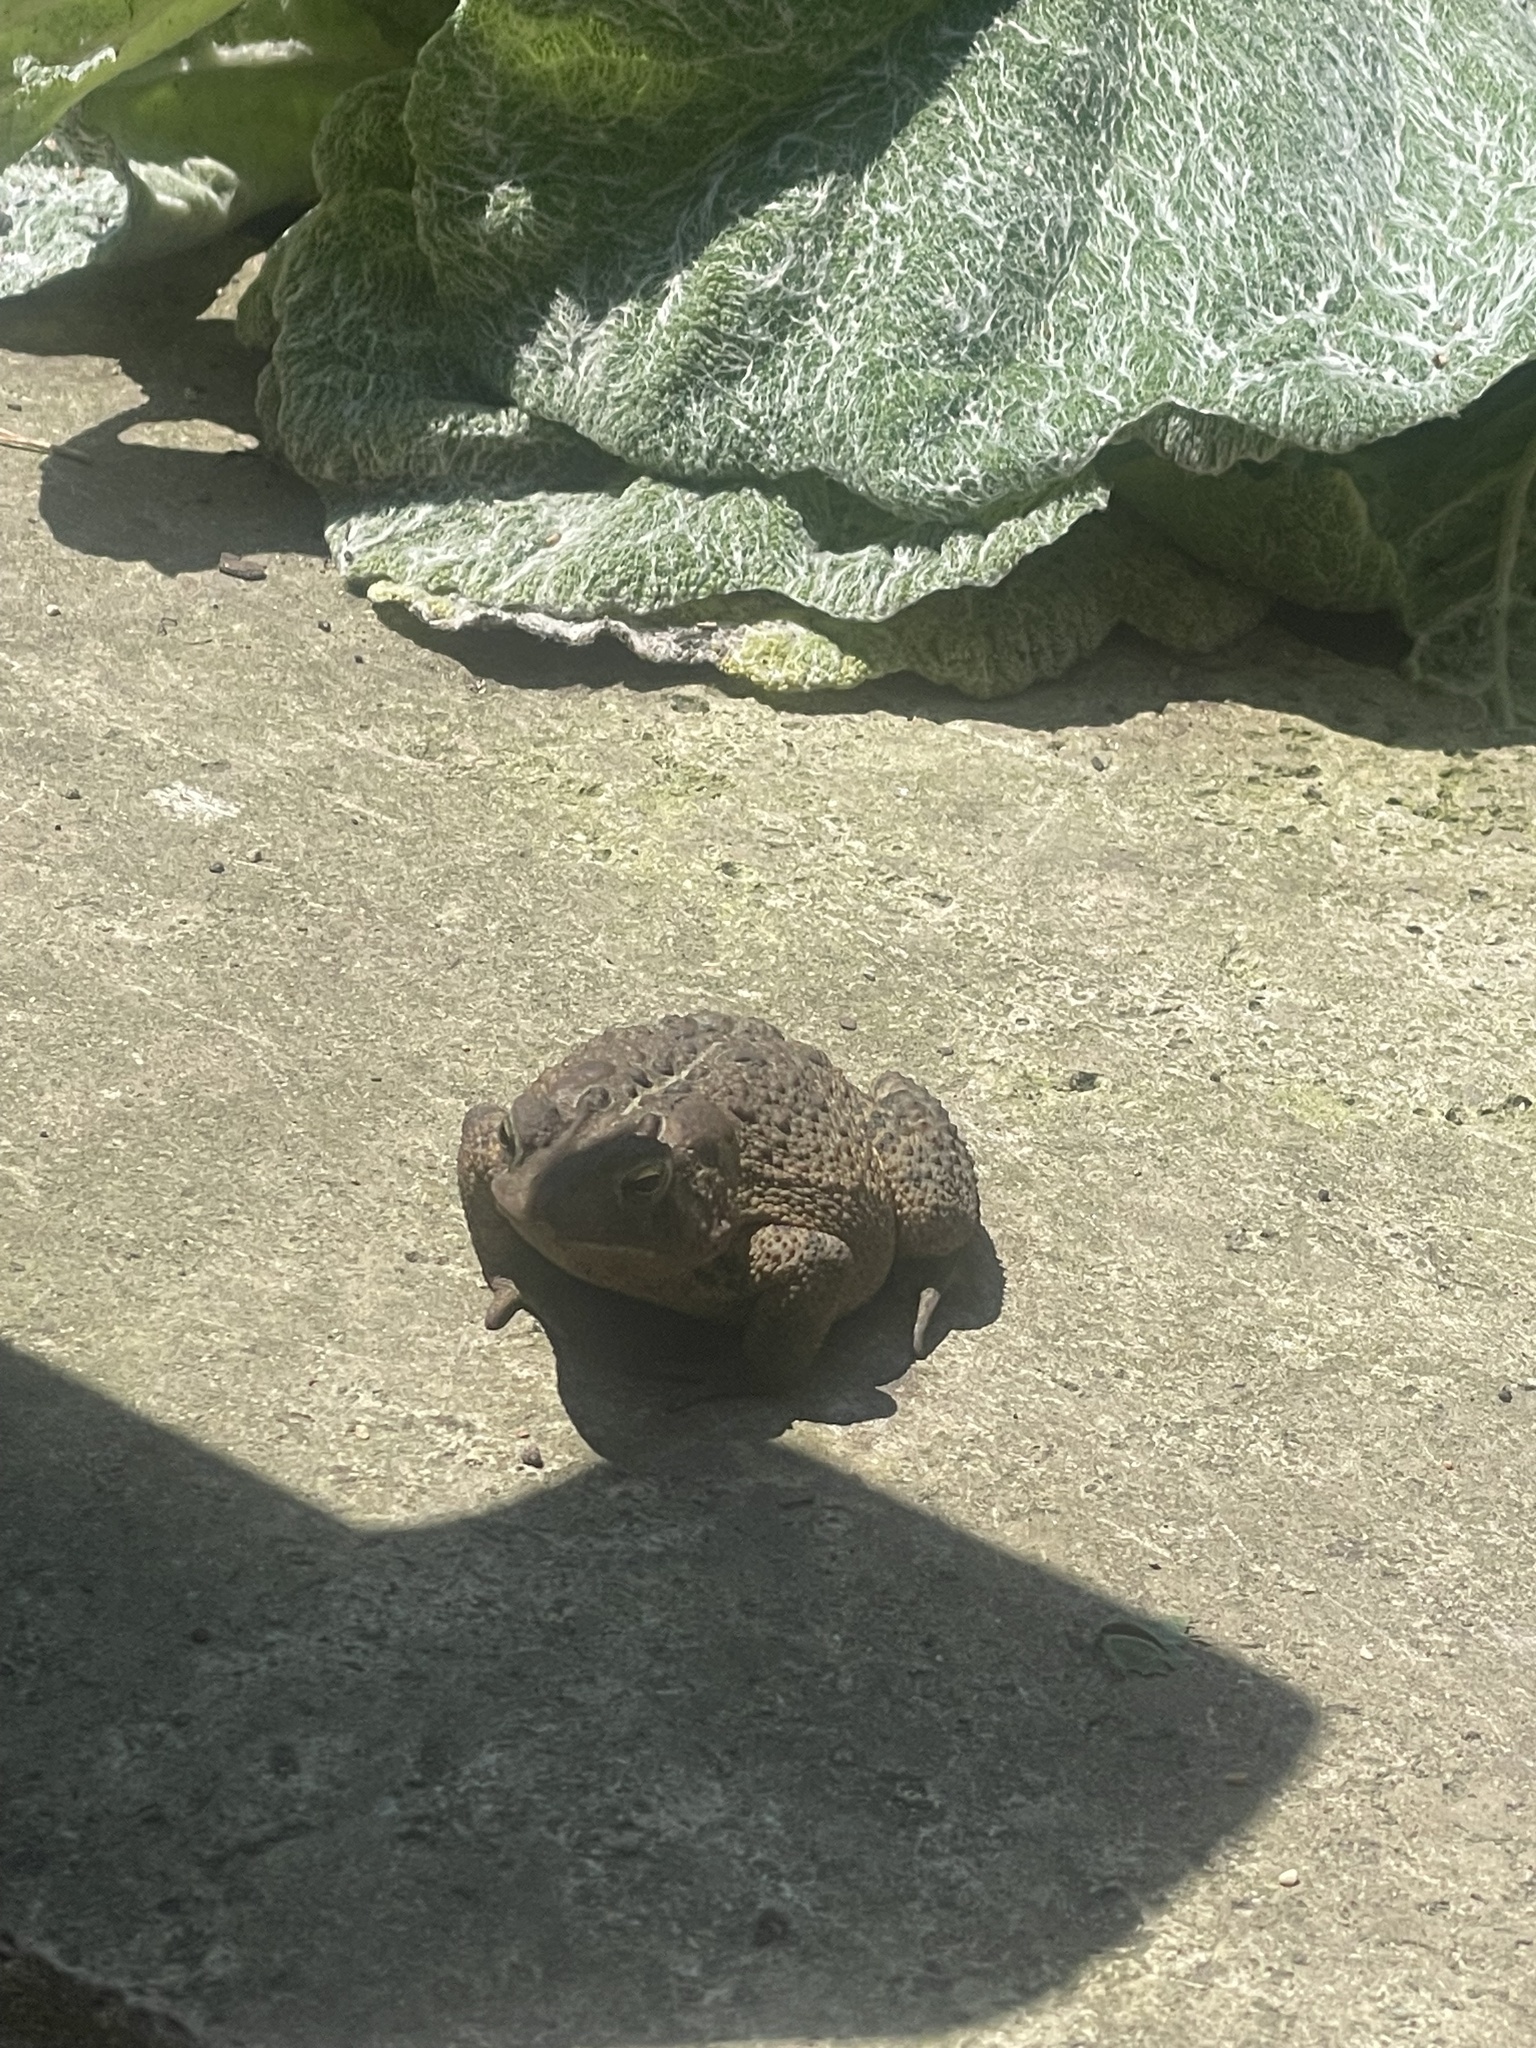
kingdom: Animalia
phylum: Chordata
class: Amphibia
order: Anura
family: Bufonidae
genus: Anaxyrus
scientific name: Anaxyrus americanus
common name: American toad
